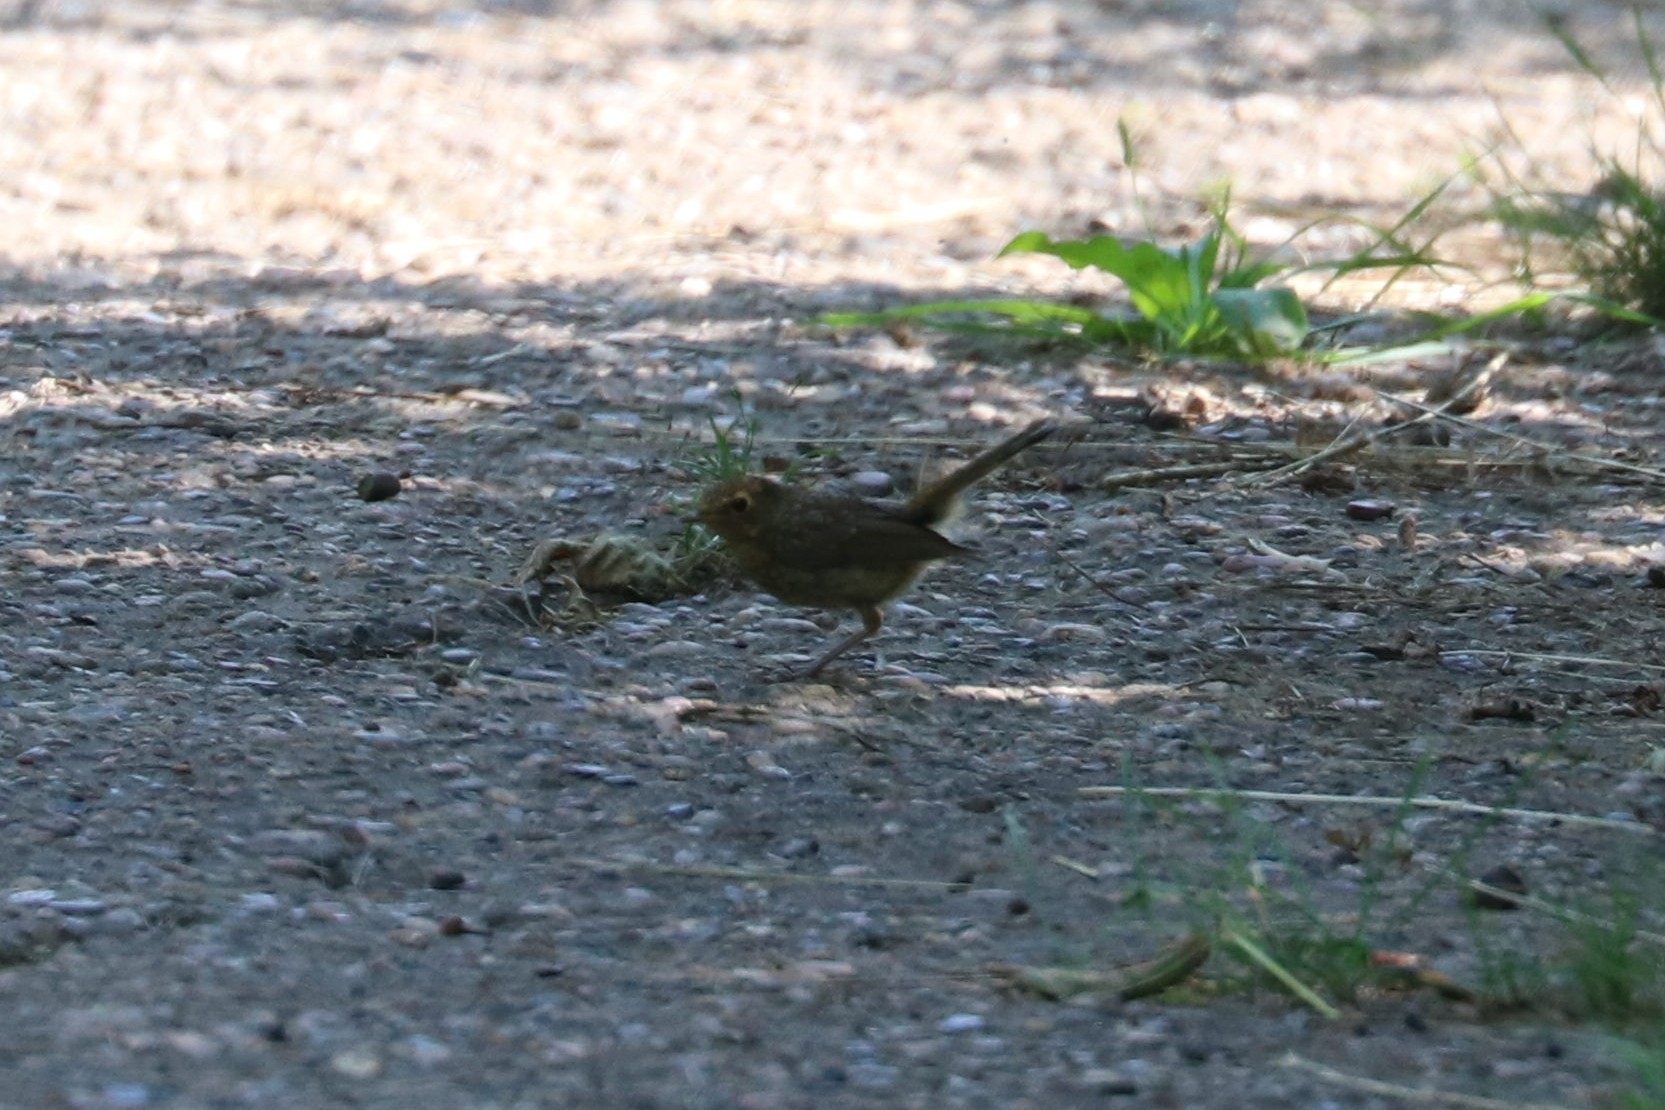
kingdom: Animalia
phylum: Chordata
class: Aves
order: Passeriformes
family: Muscicapidae
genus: Erithacus
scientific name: Erithacus rubecula
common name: European robin
